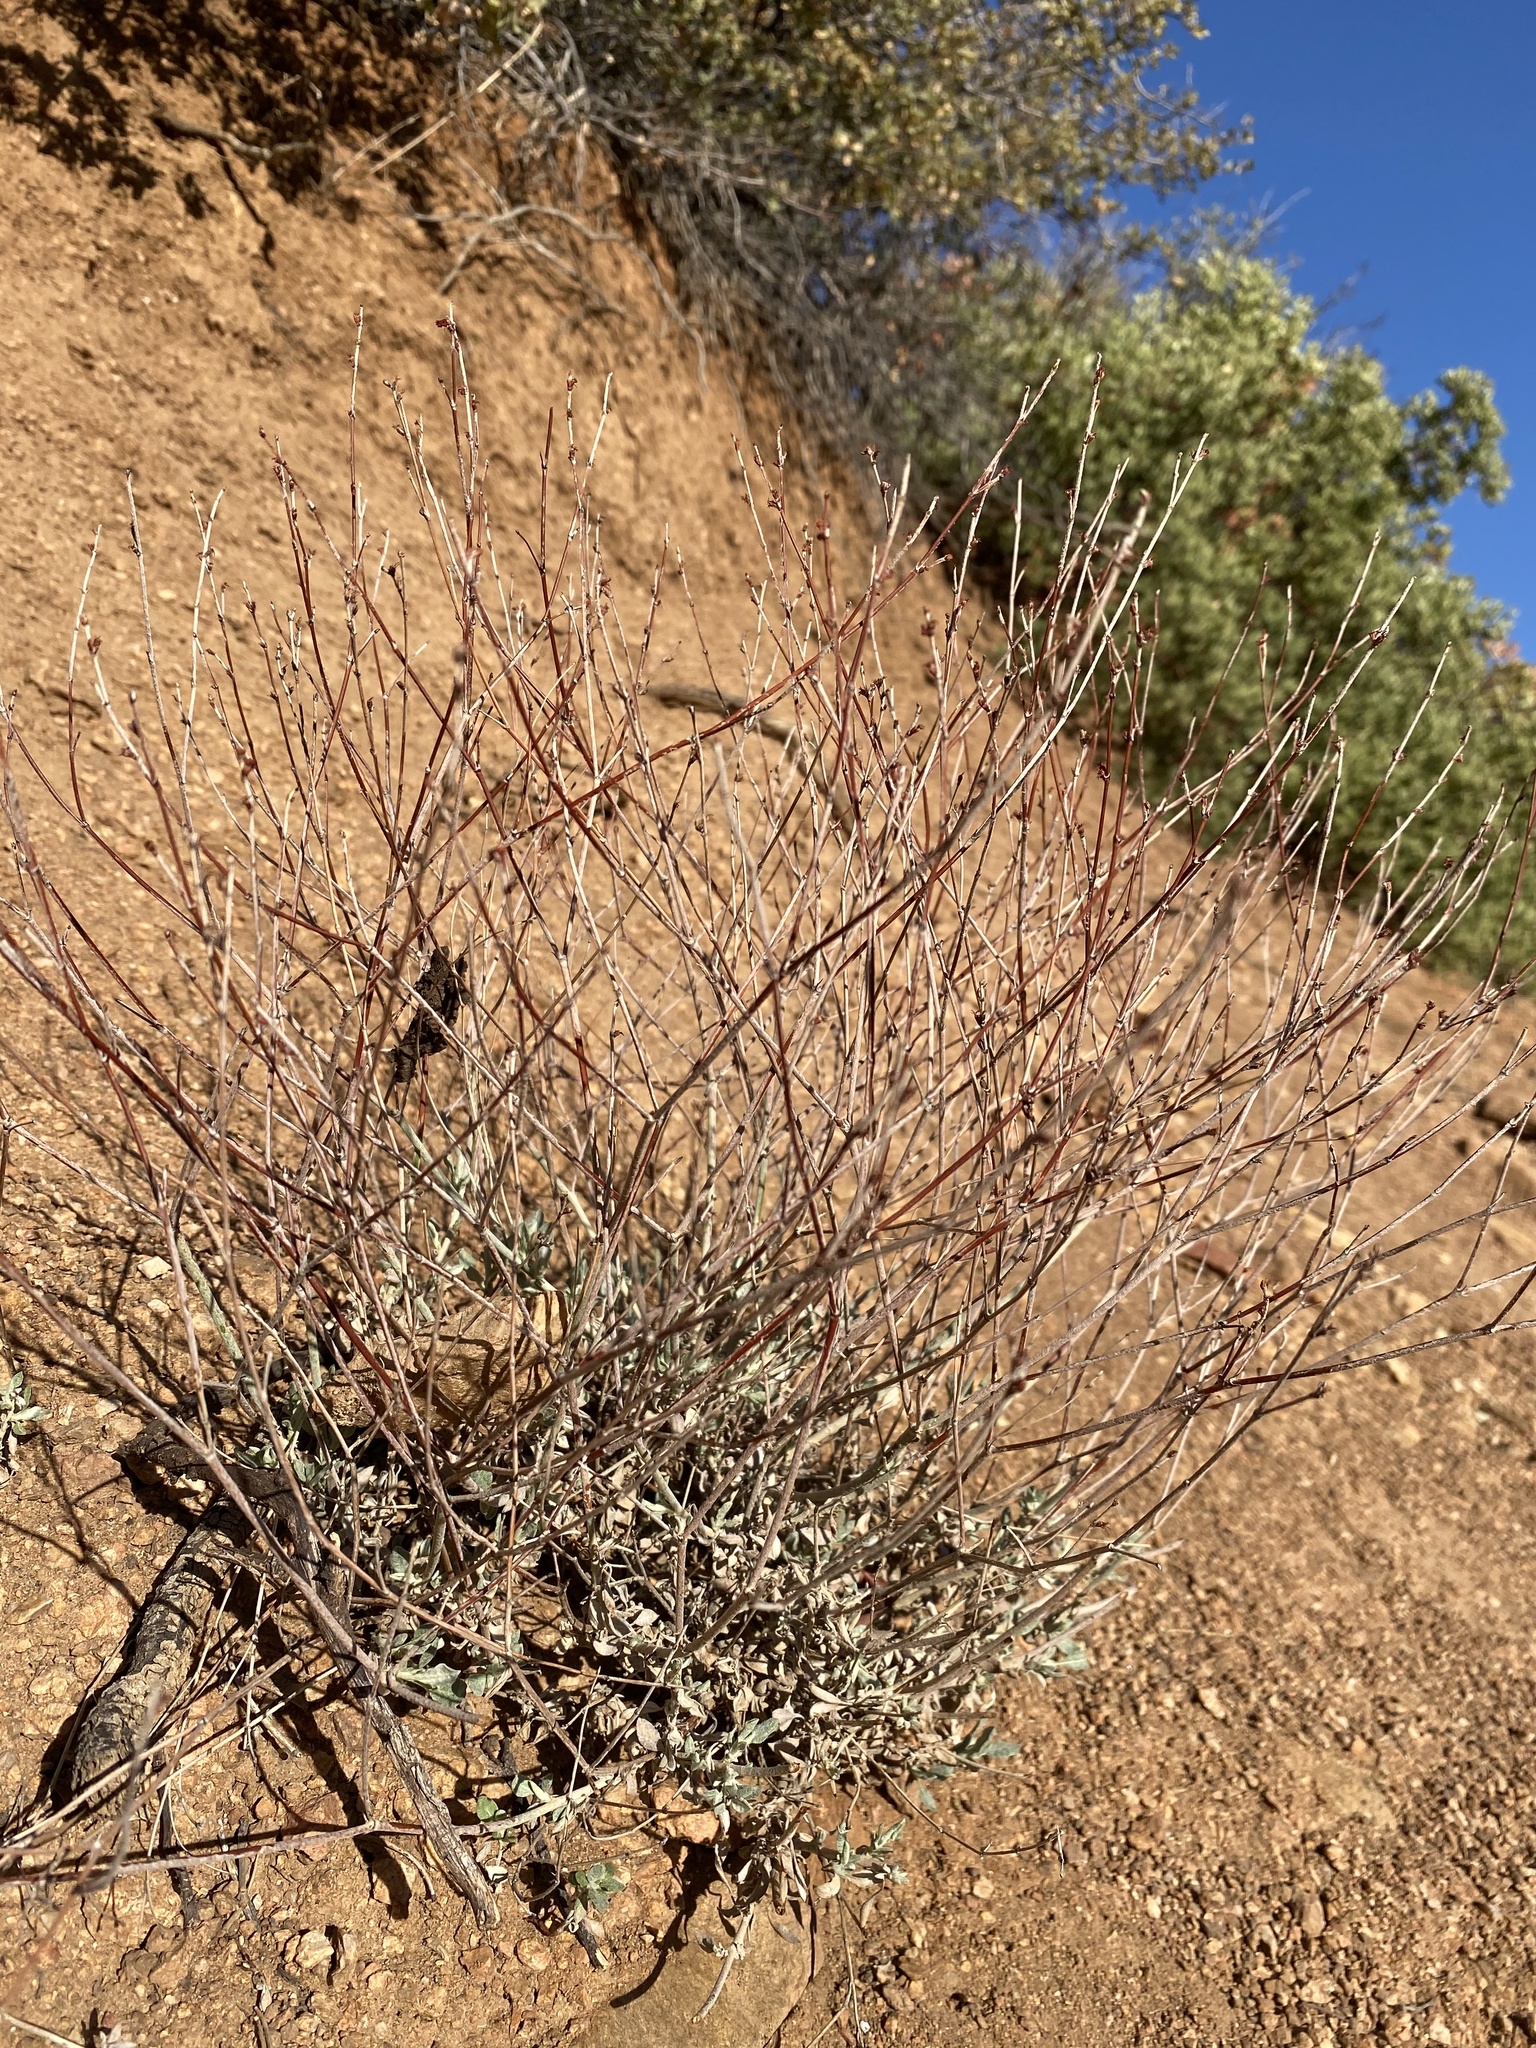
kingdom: Plantae
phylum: Tracheophyta
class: Magnoliopsida
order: Caryophyllales
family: Polygonaceae
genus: Eriogonum
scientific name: Eriogonum wrightii
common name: Bastard-sage
